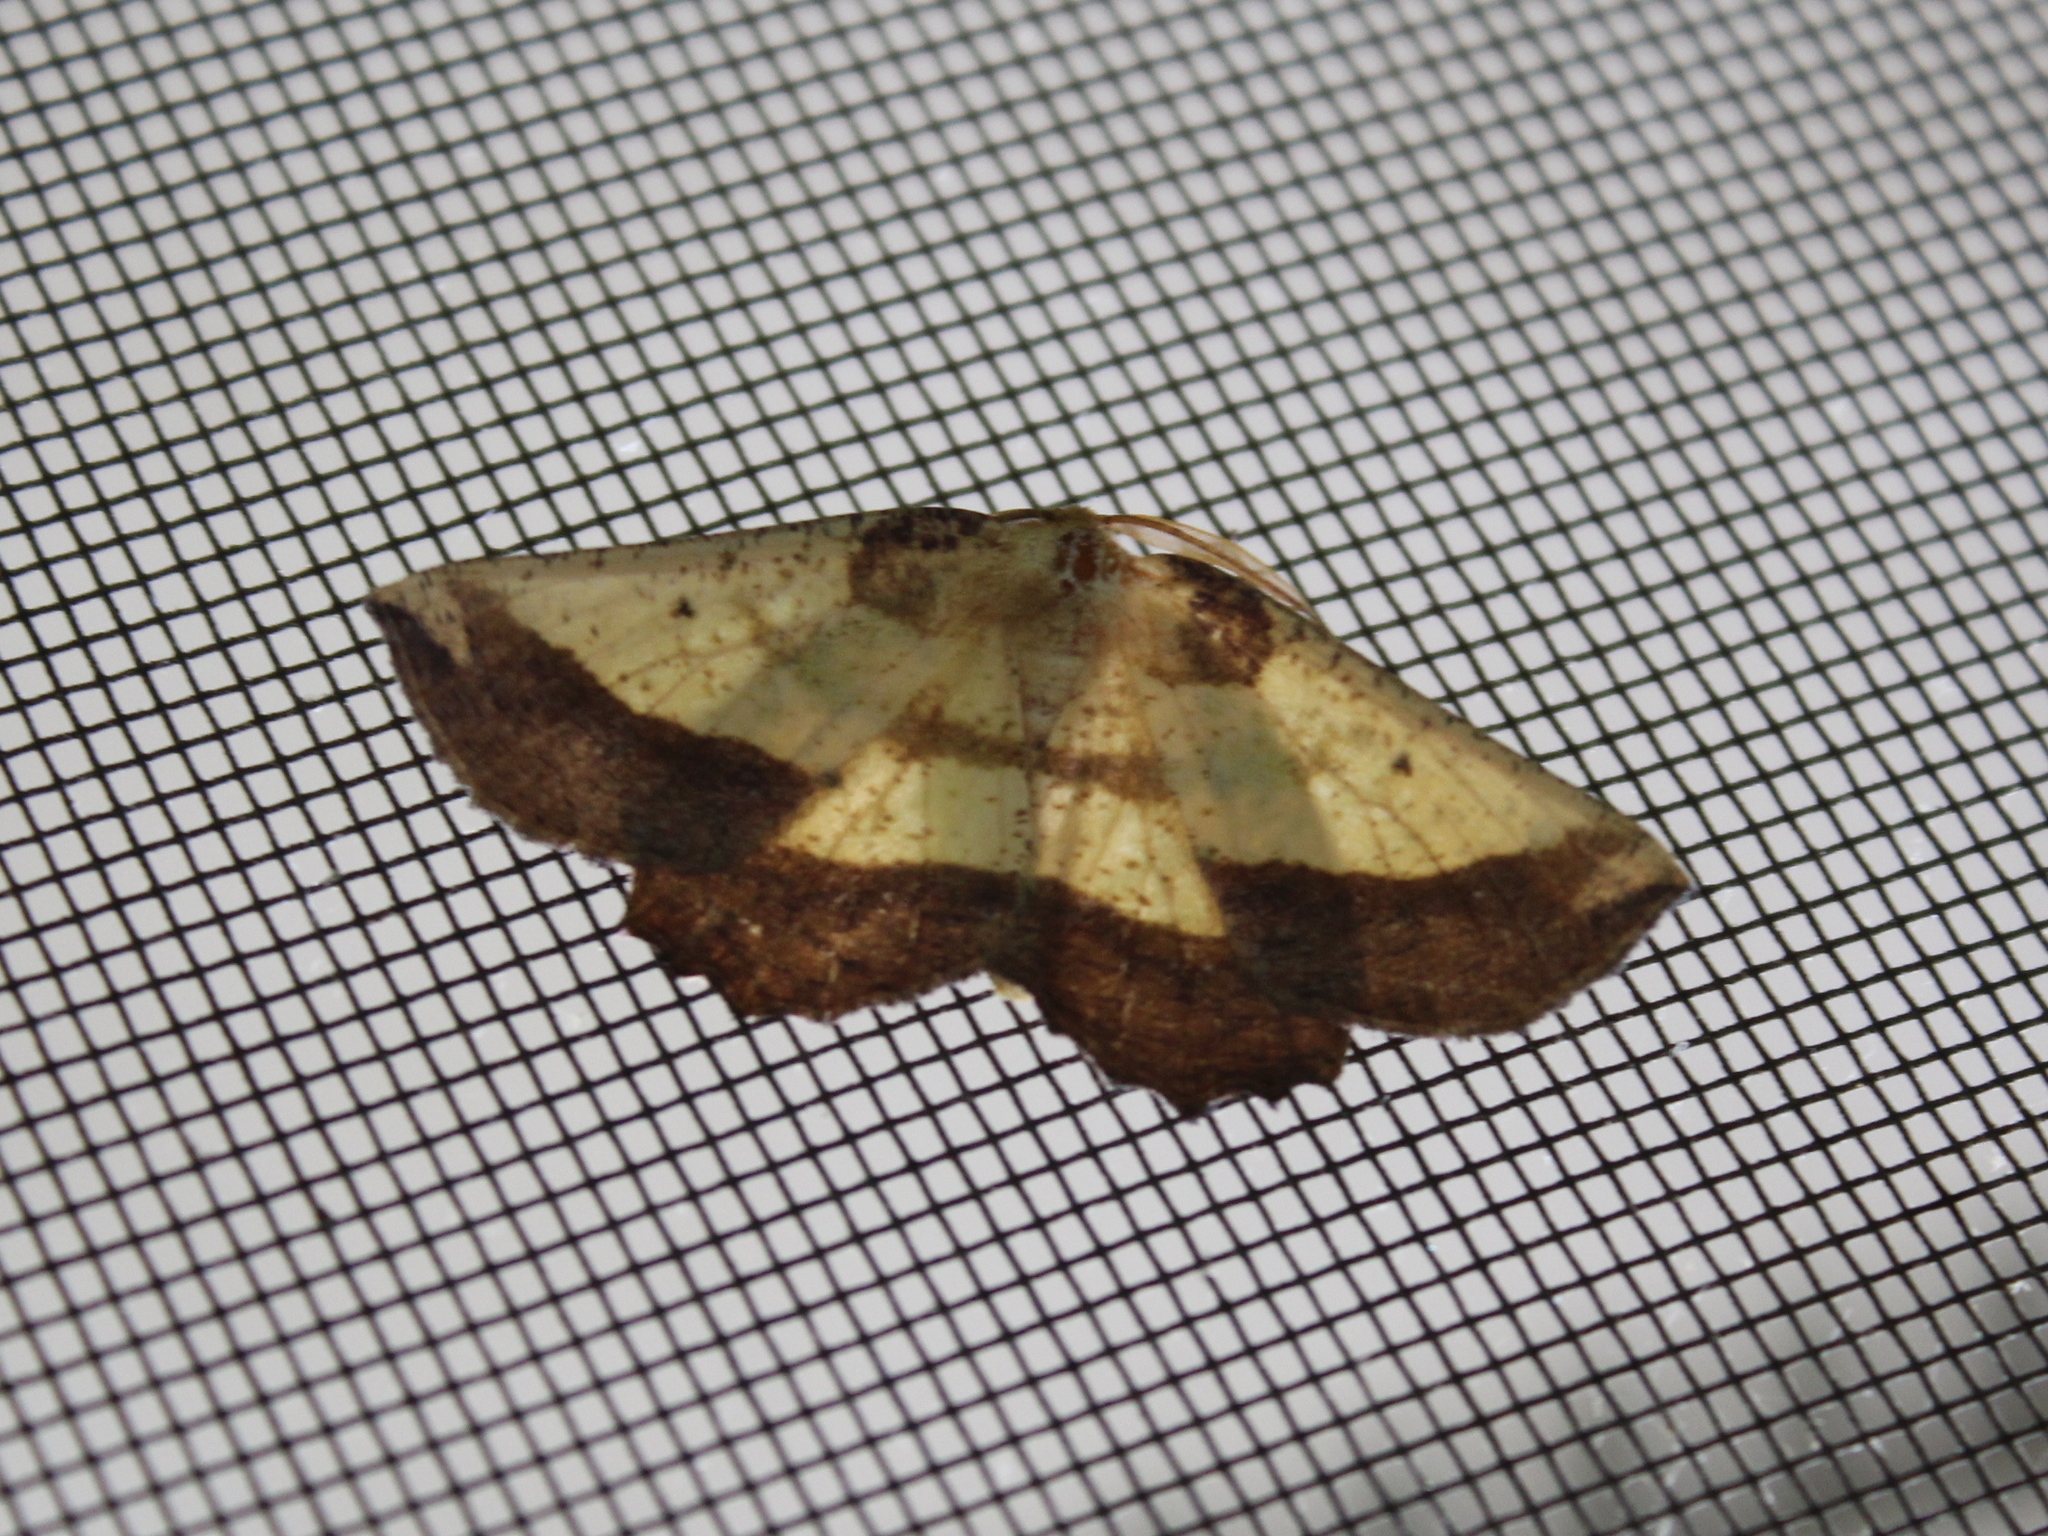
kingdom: Animalia
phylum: Arthropoda
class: Insecta
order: Lepidoptera
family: Geometridae
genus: Euchlaena
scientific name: Euchlaena serrata
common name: Saw wing
